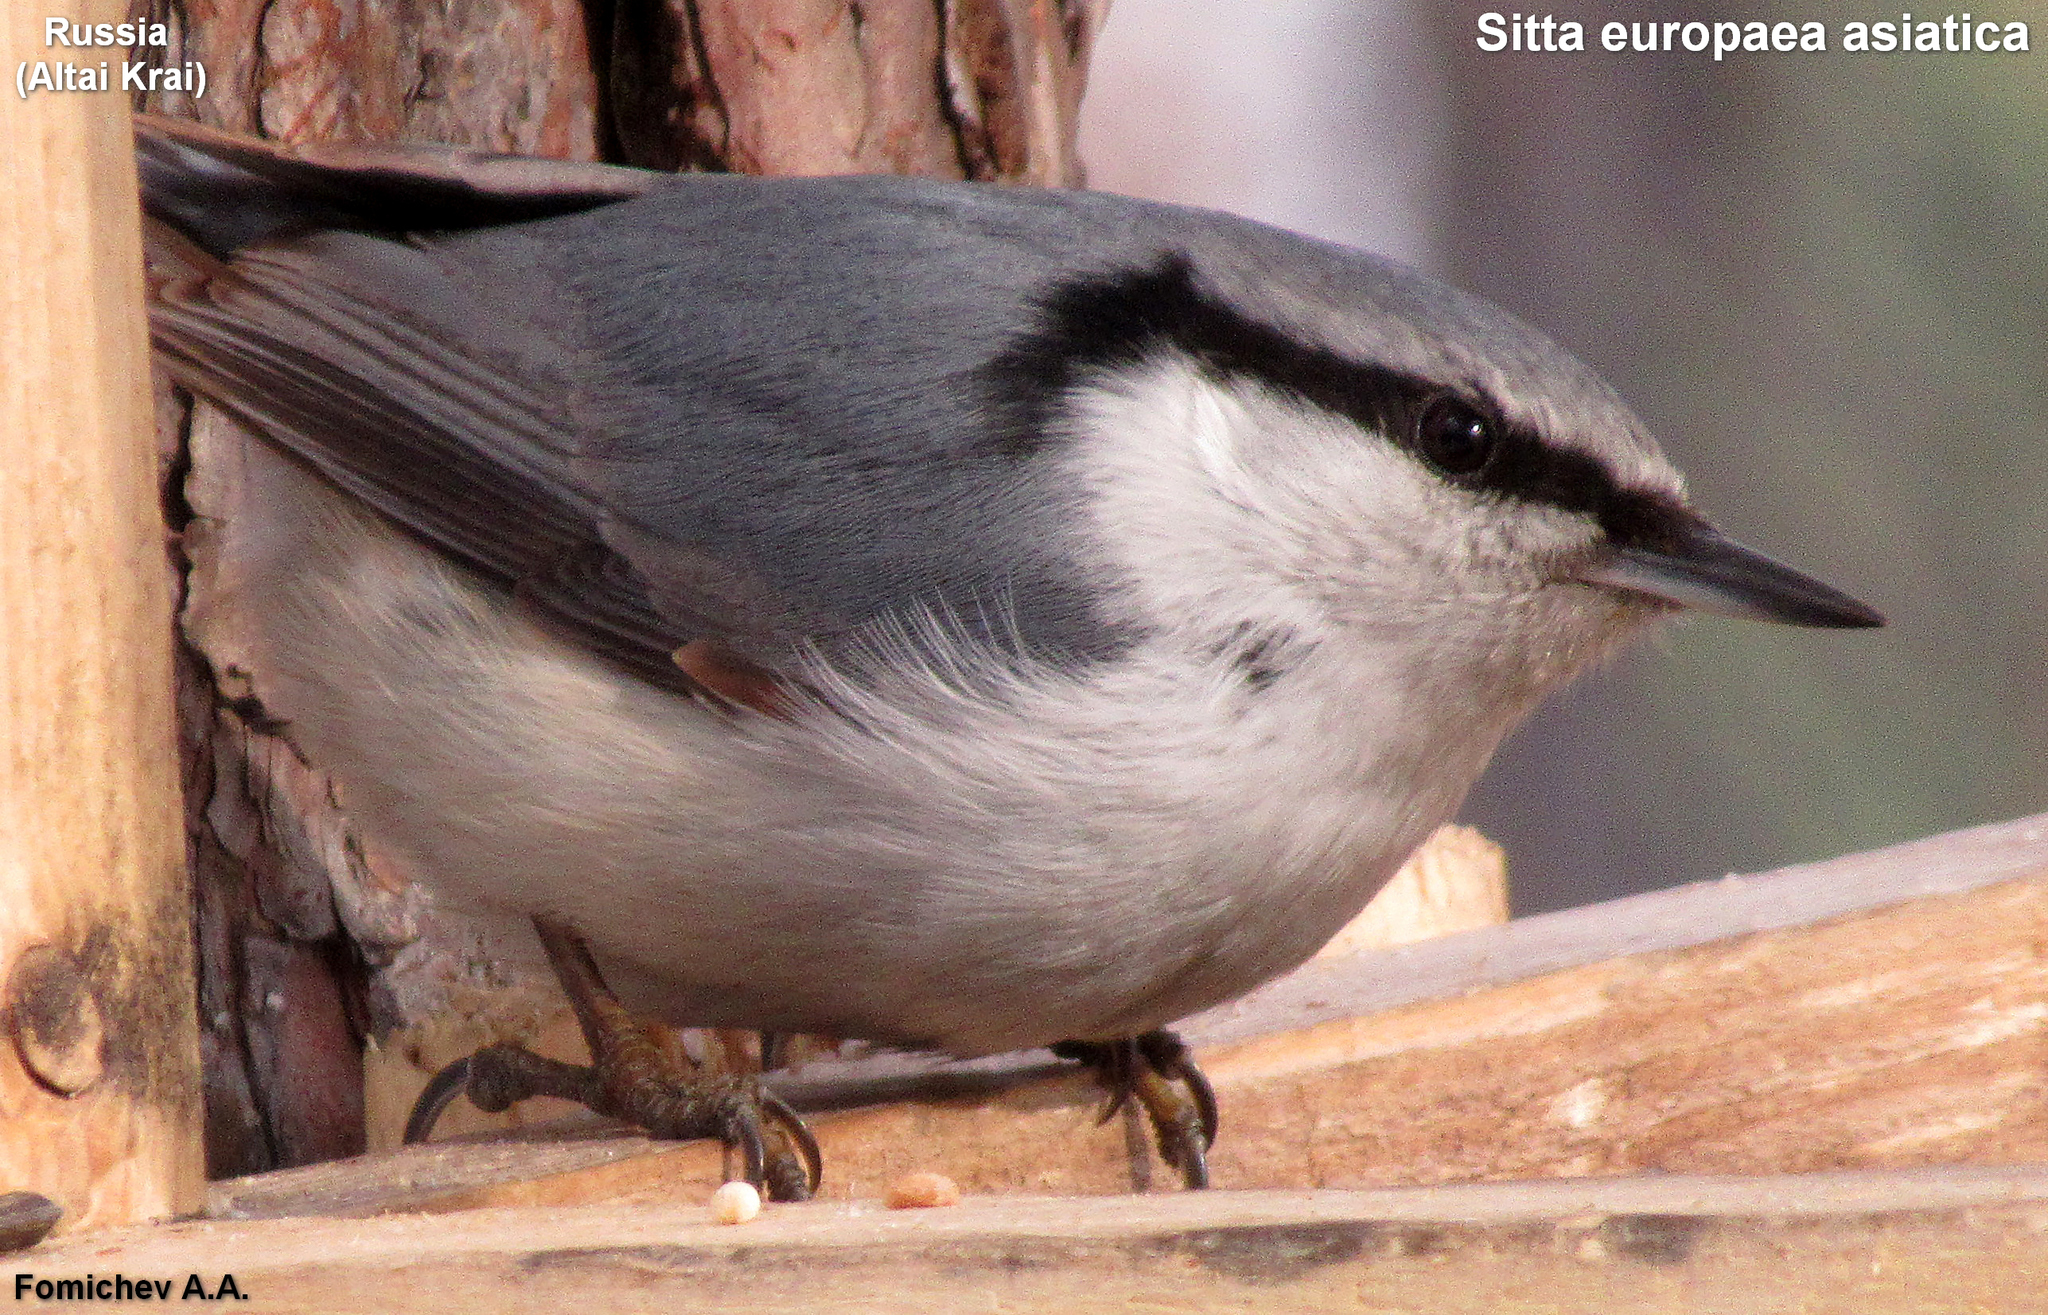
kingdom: Animalia
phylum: Chordata
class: Aves
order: Passeriformes
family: Sittidae
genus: Sitta
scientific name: Sitta europaea
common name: Eurasian nuthatch
